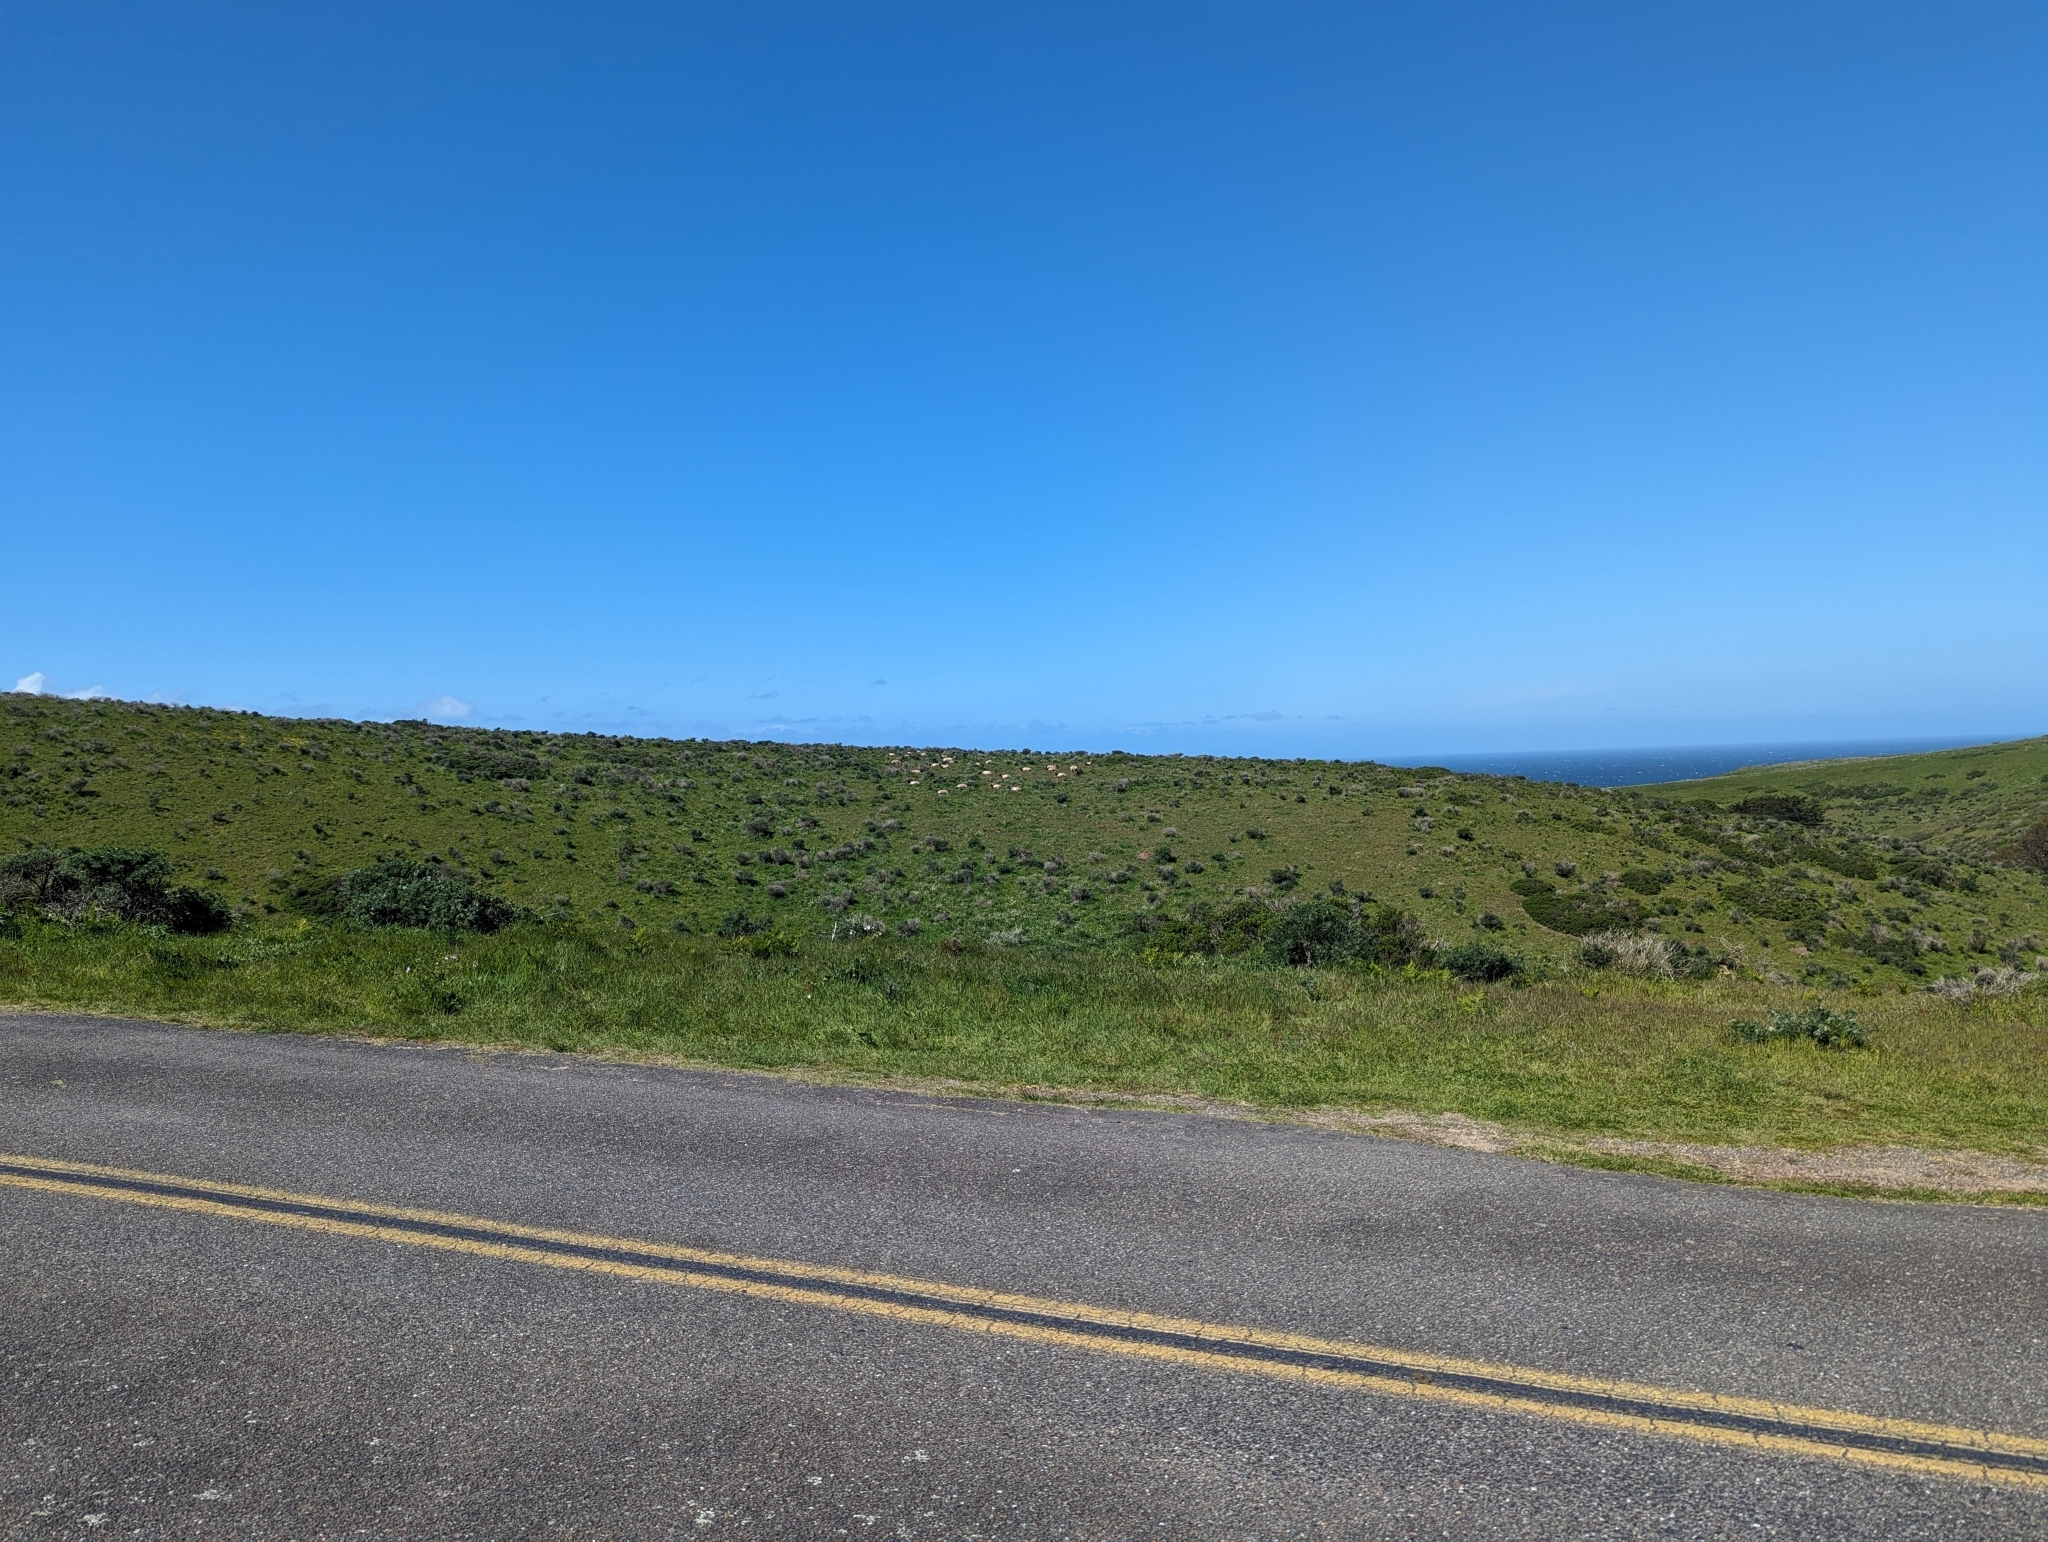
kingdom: Animalia
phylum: Chordata
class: Mammalia
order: Artiodactyla
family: Cervidae
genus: Cervus
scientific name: Cervus elaphus
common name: Red deer
